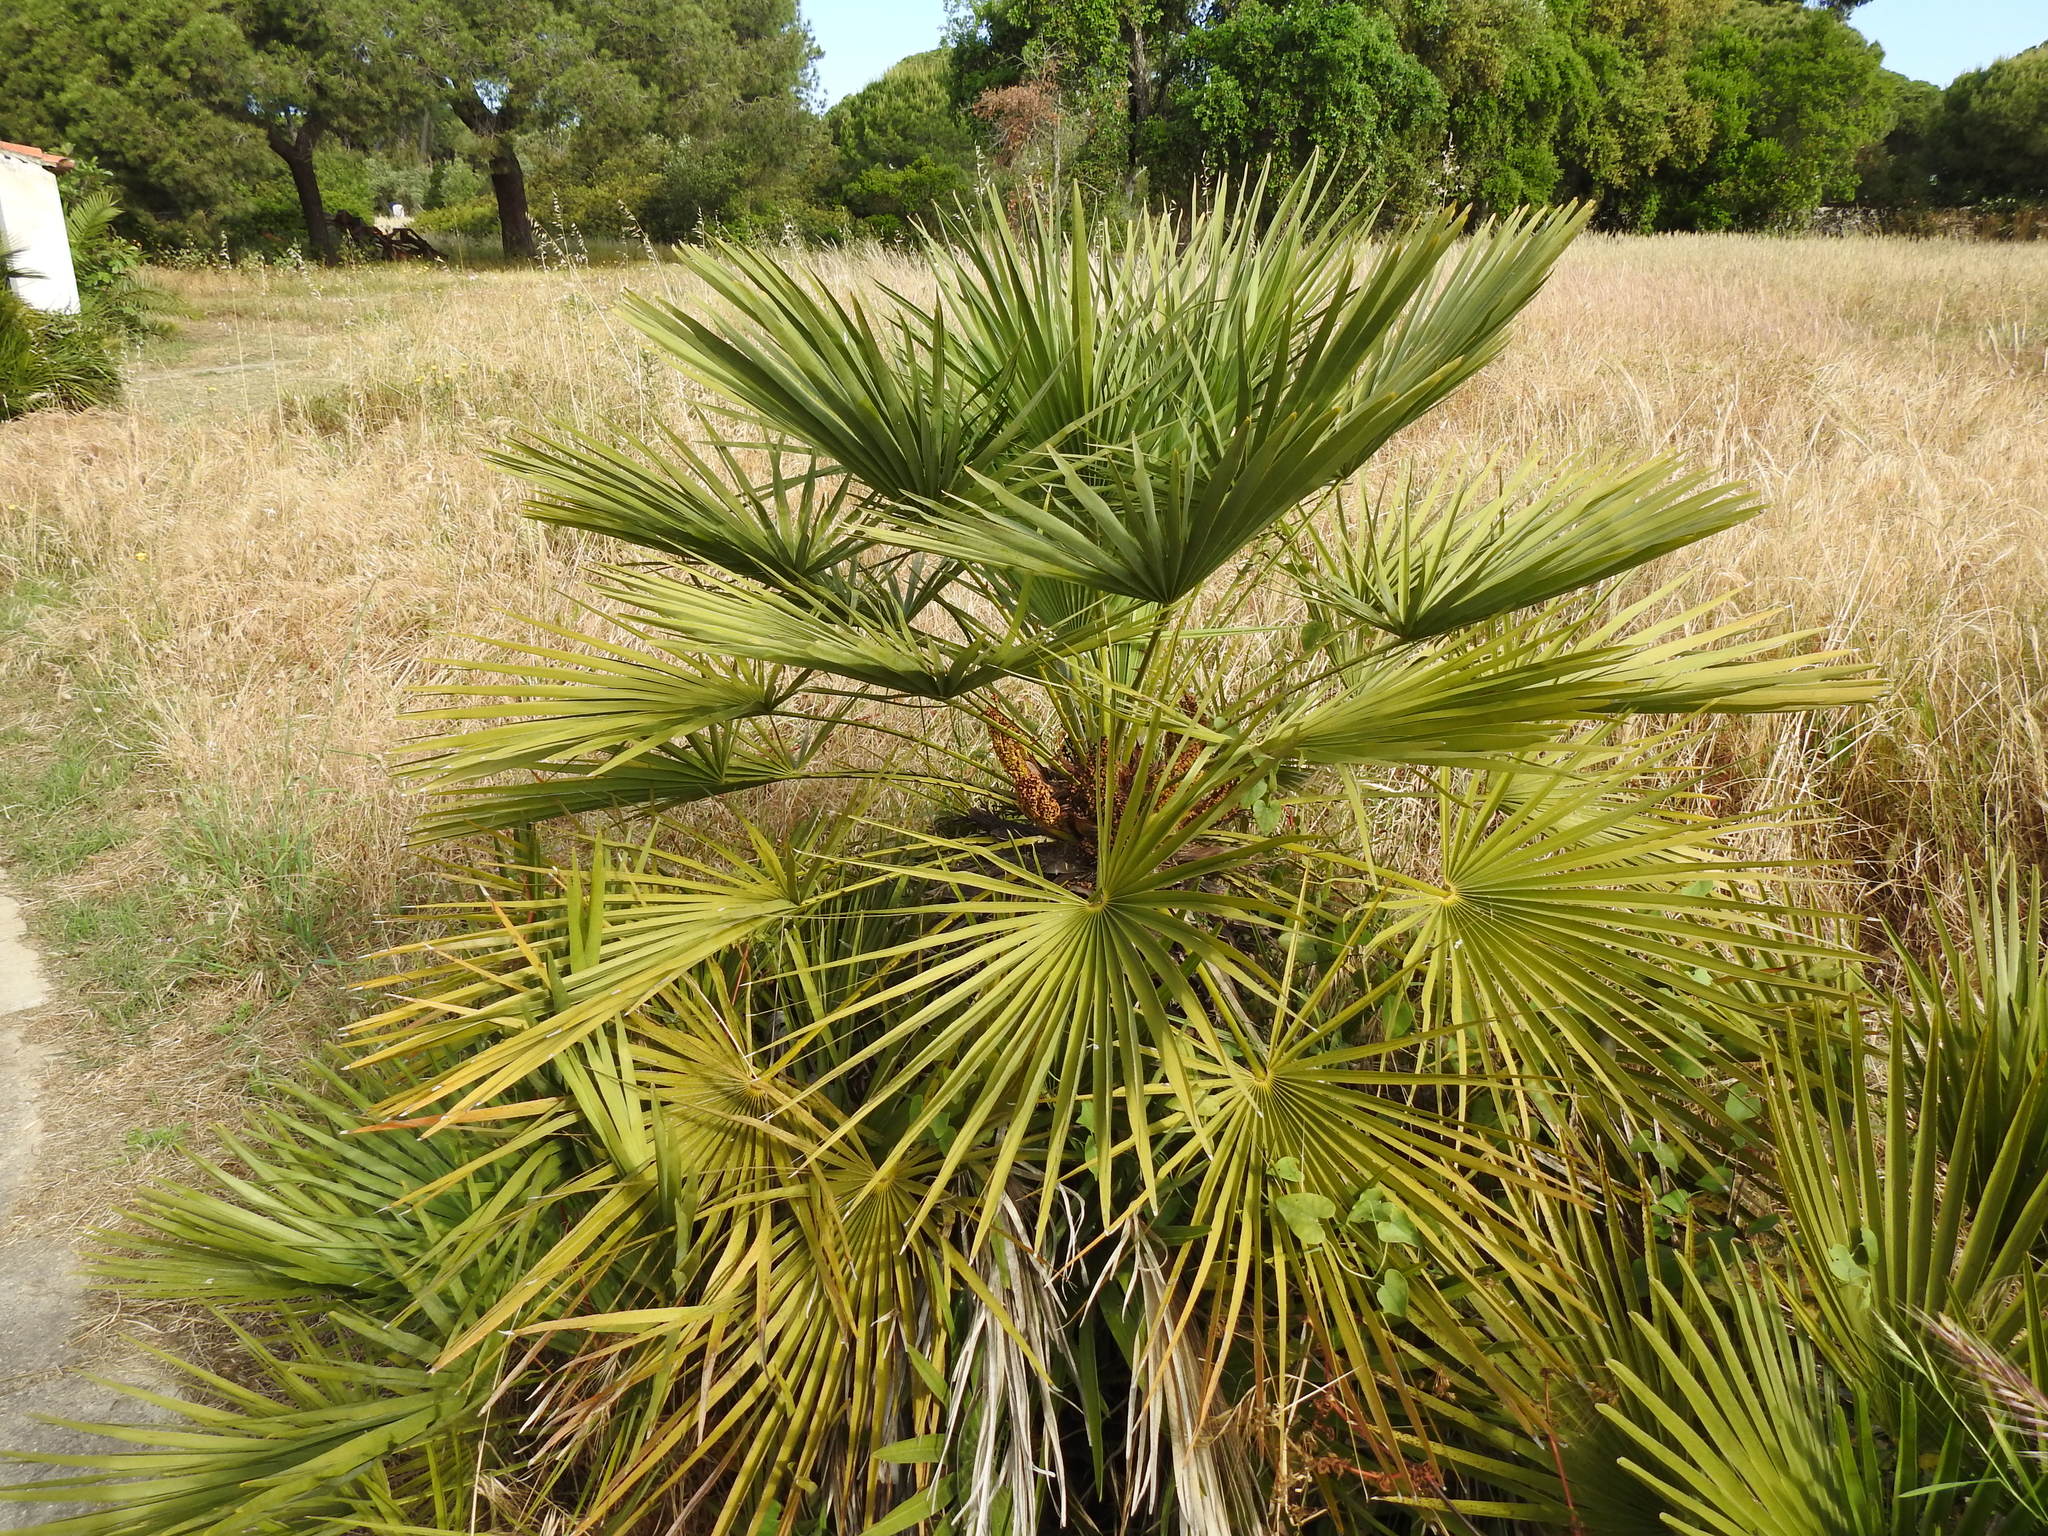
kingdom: Plantae
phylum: Tracheophyta
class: Liliopsida
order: Arecales
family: Arecaceae
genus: Chamaerops
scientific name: Chamaerops humilis
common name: Dwarf fan palm
